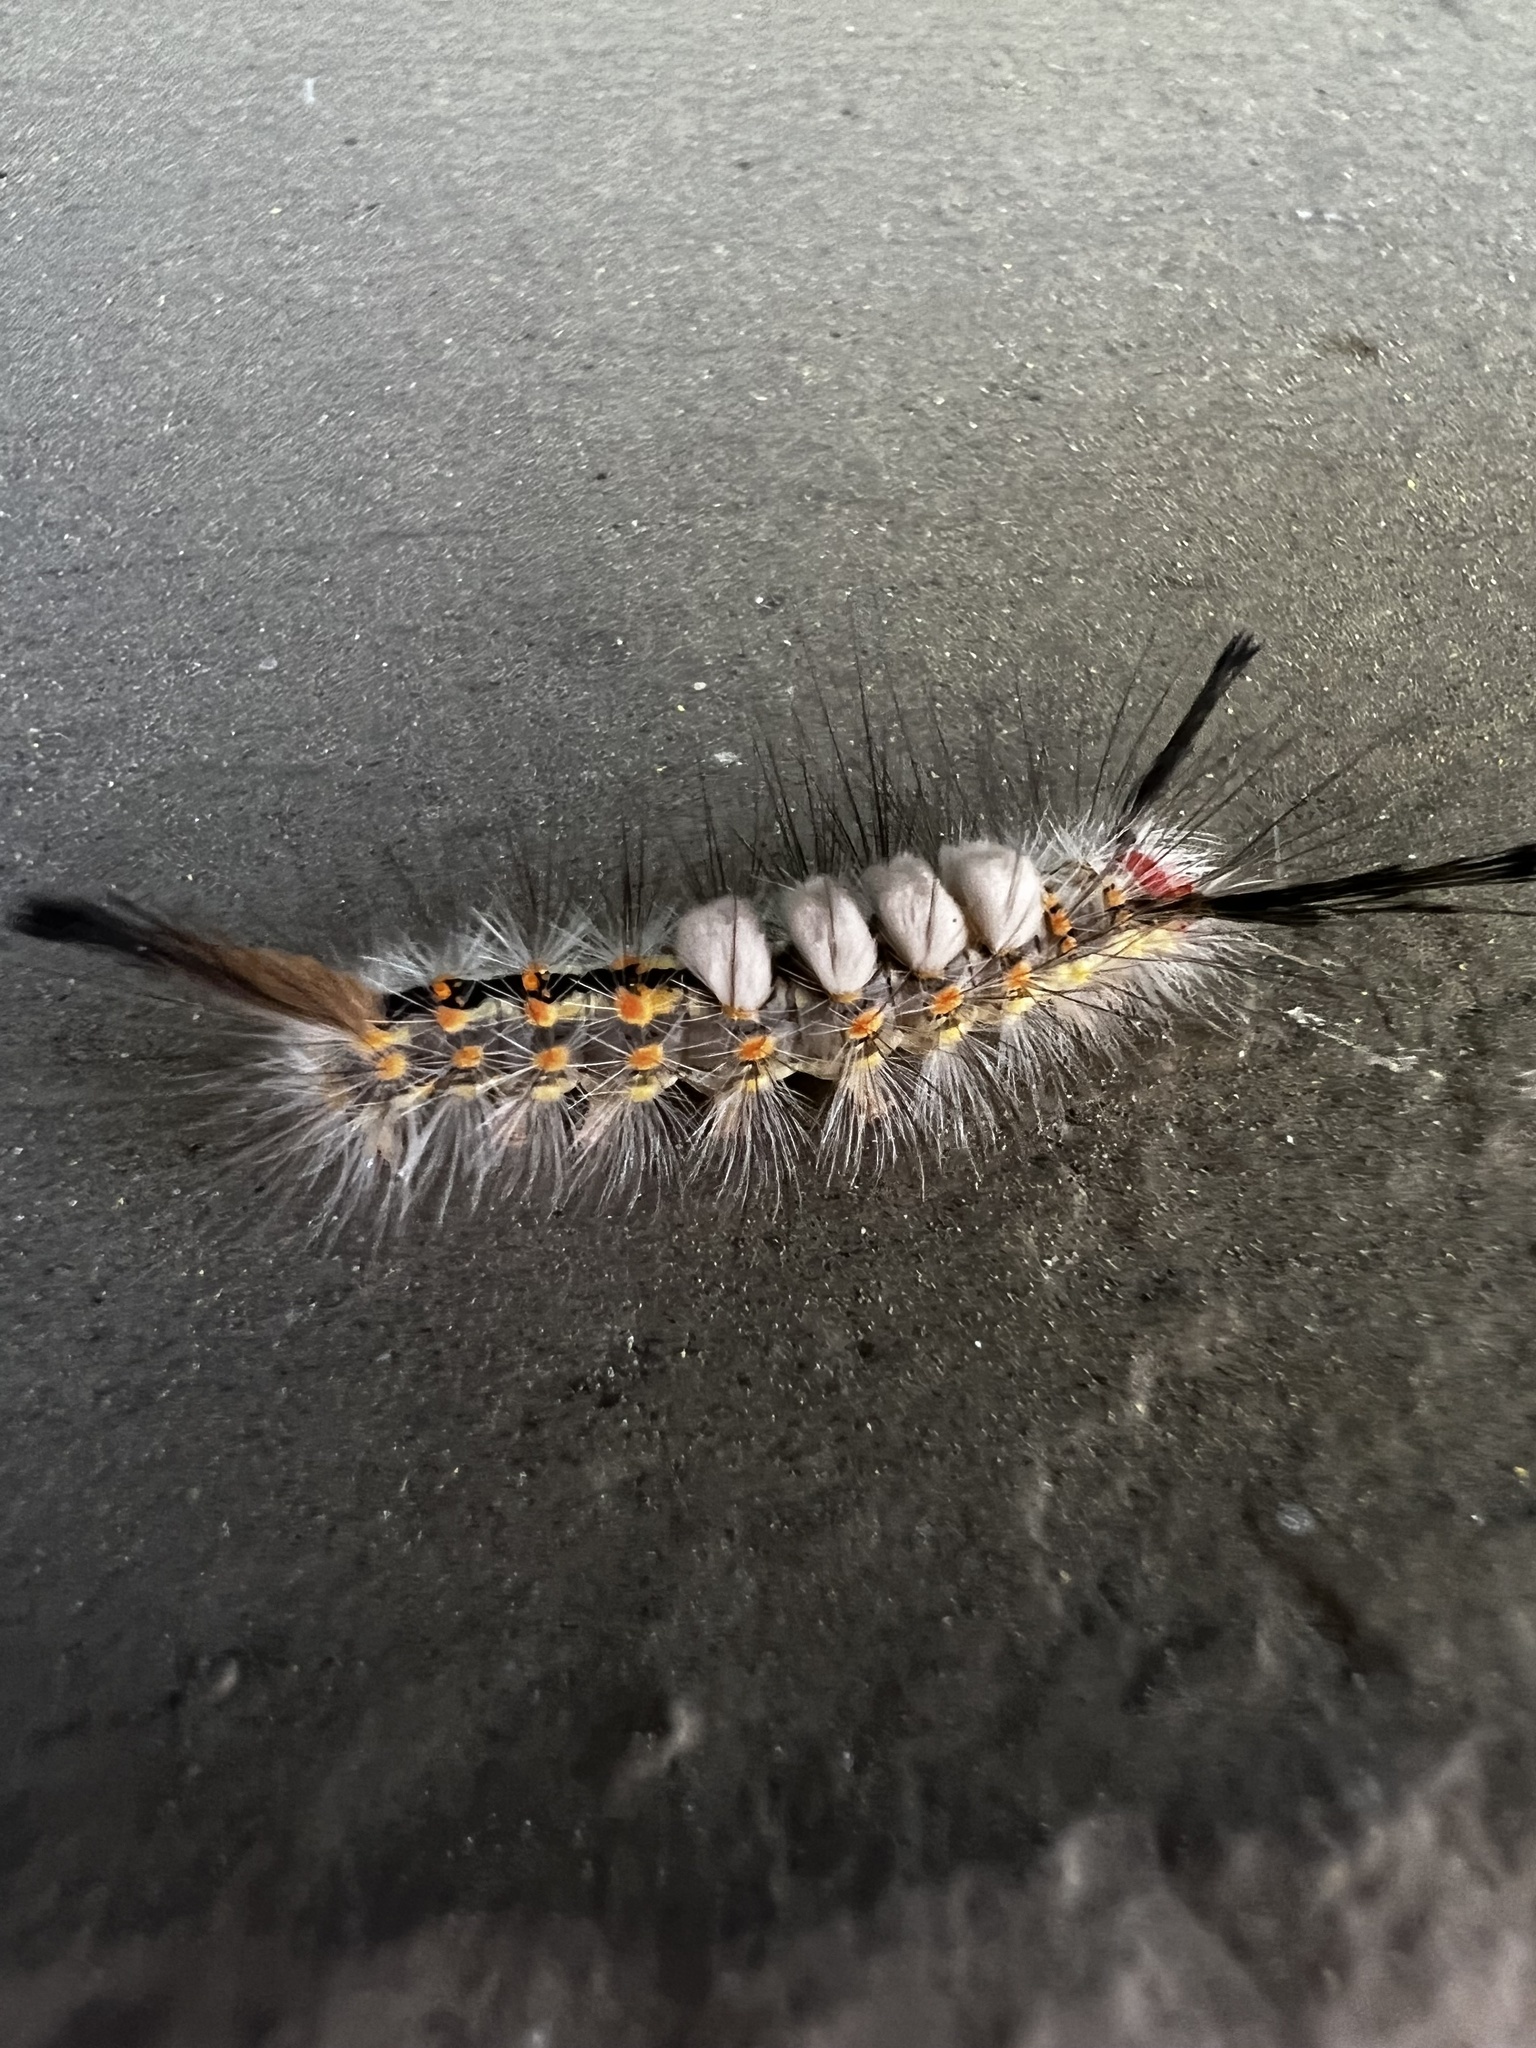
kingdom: Animalia
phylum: Arthropoda
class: Insecta
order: Lepidoptera
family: Erebidae
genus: Orgyia
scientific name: Orgyia detrita
